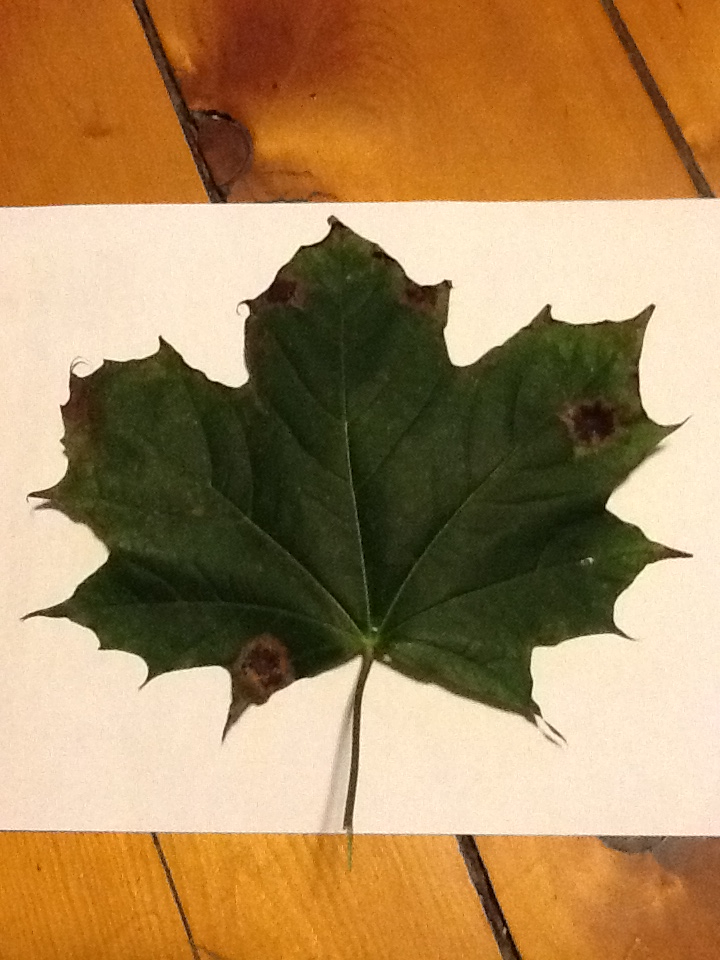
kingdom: Fungi
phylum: Ascomycota
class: Leotiomycetes
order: Rhytismatales
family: Rhytismataceae
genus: Rhytisma
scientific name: Rhytisma acerinum
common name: European tar spot
